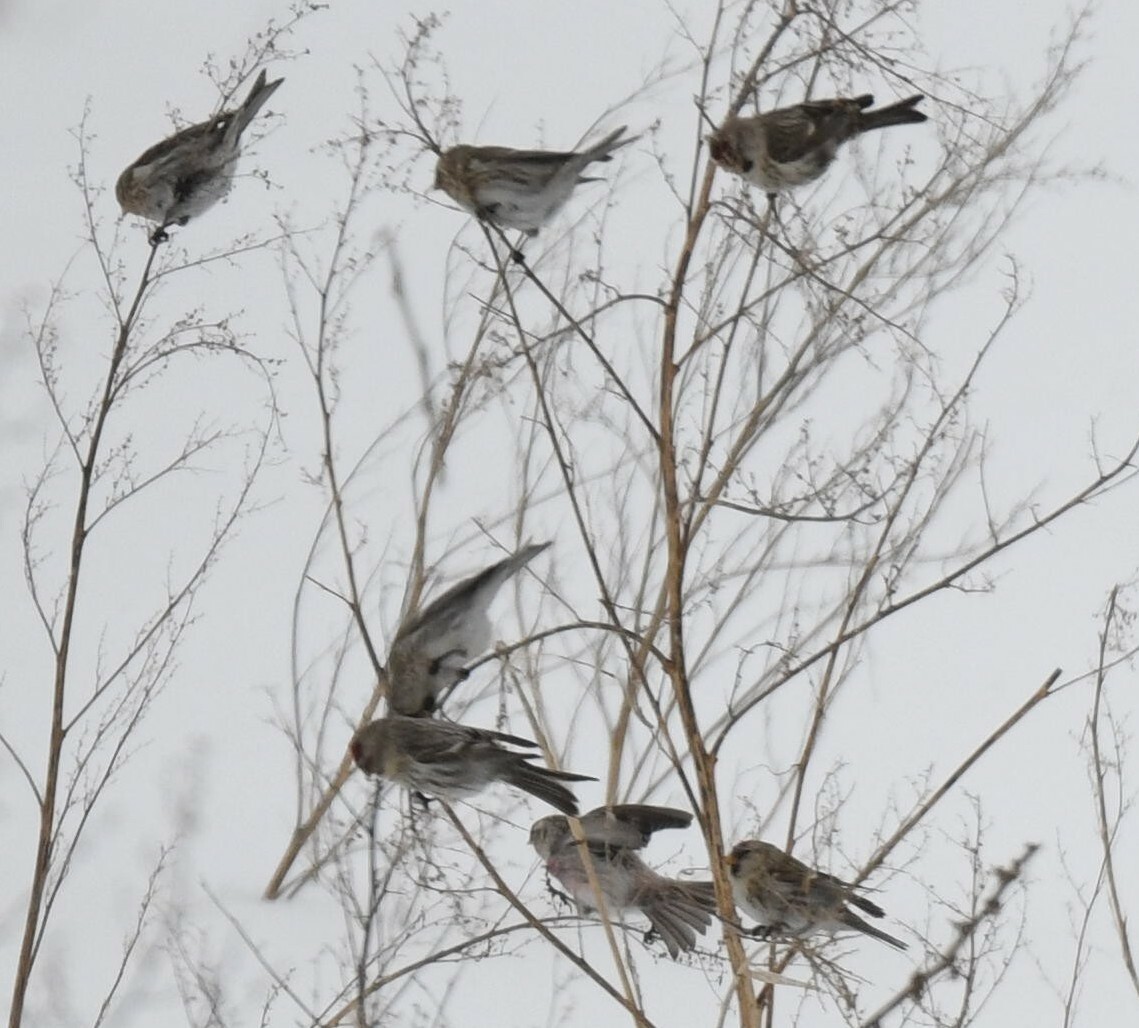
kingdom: Animalia
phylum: Chordata
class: Aves
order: Passeriformes
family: Fringillidae
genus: Acanthis
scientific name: Acanthis flammea
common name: Common redpoll
